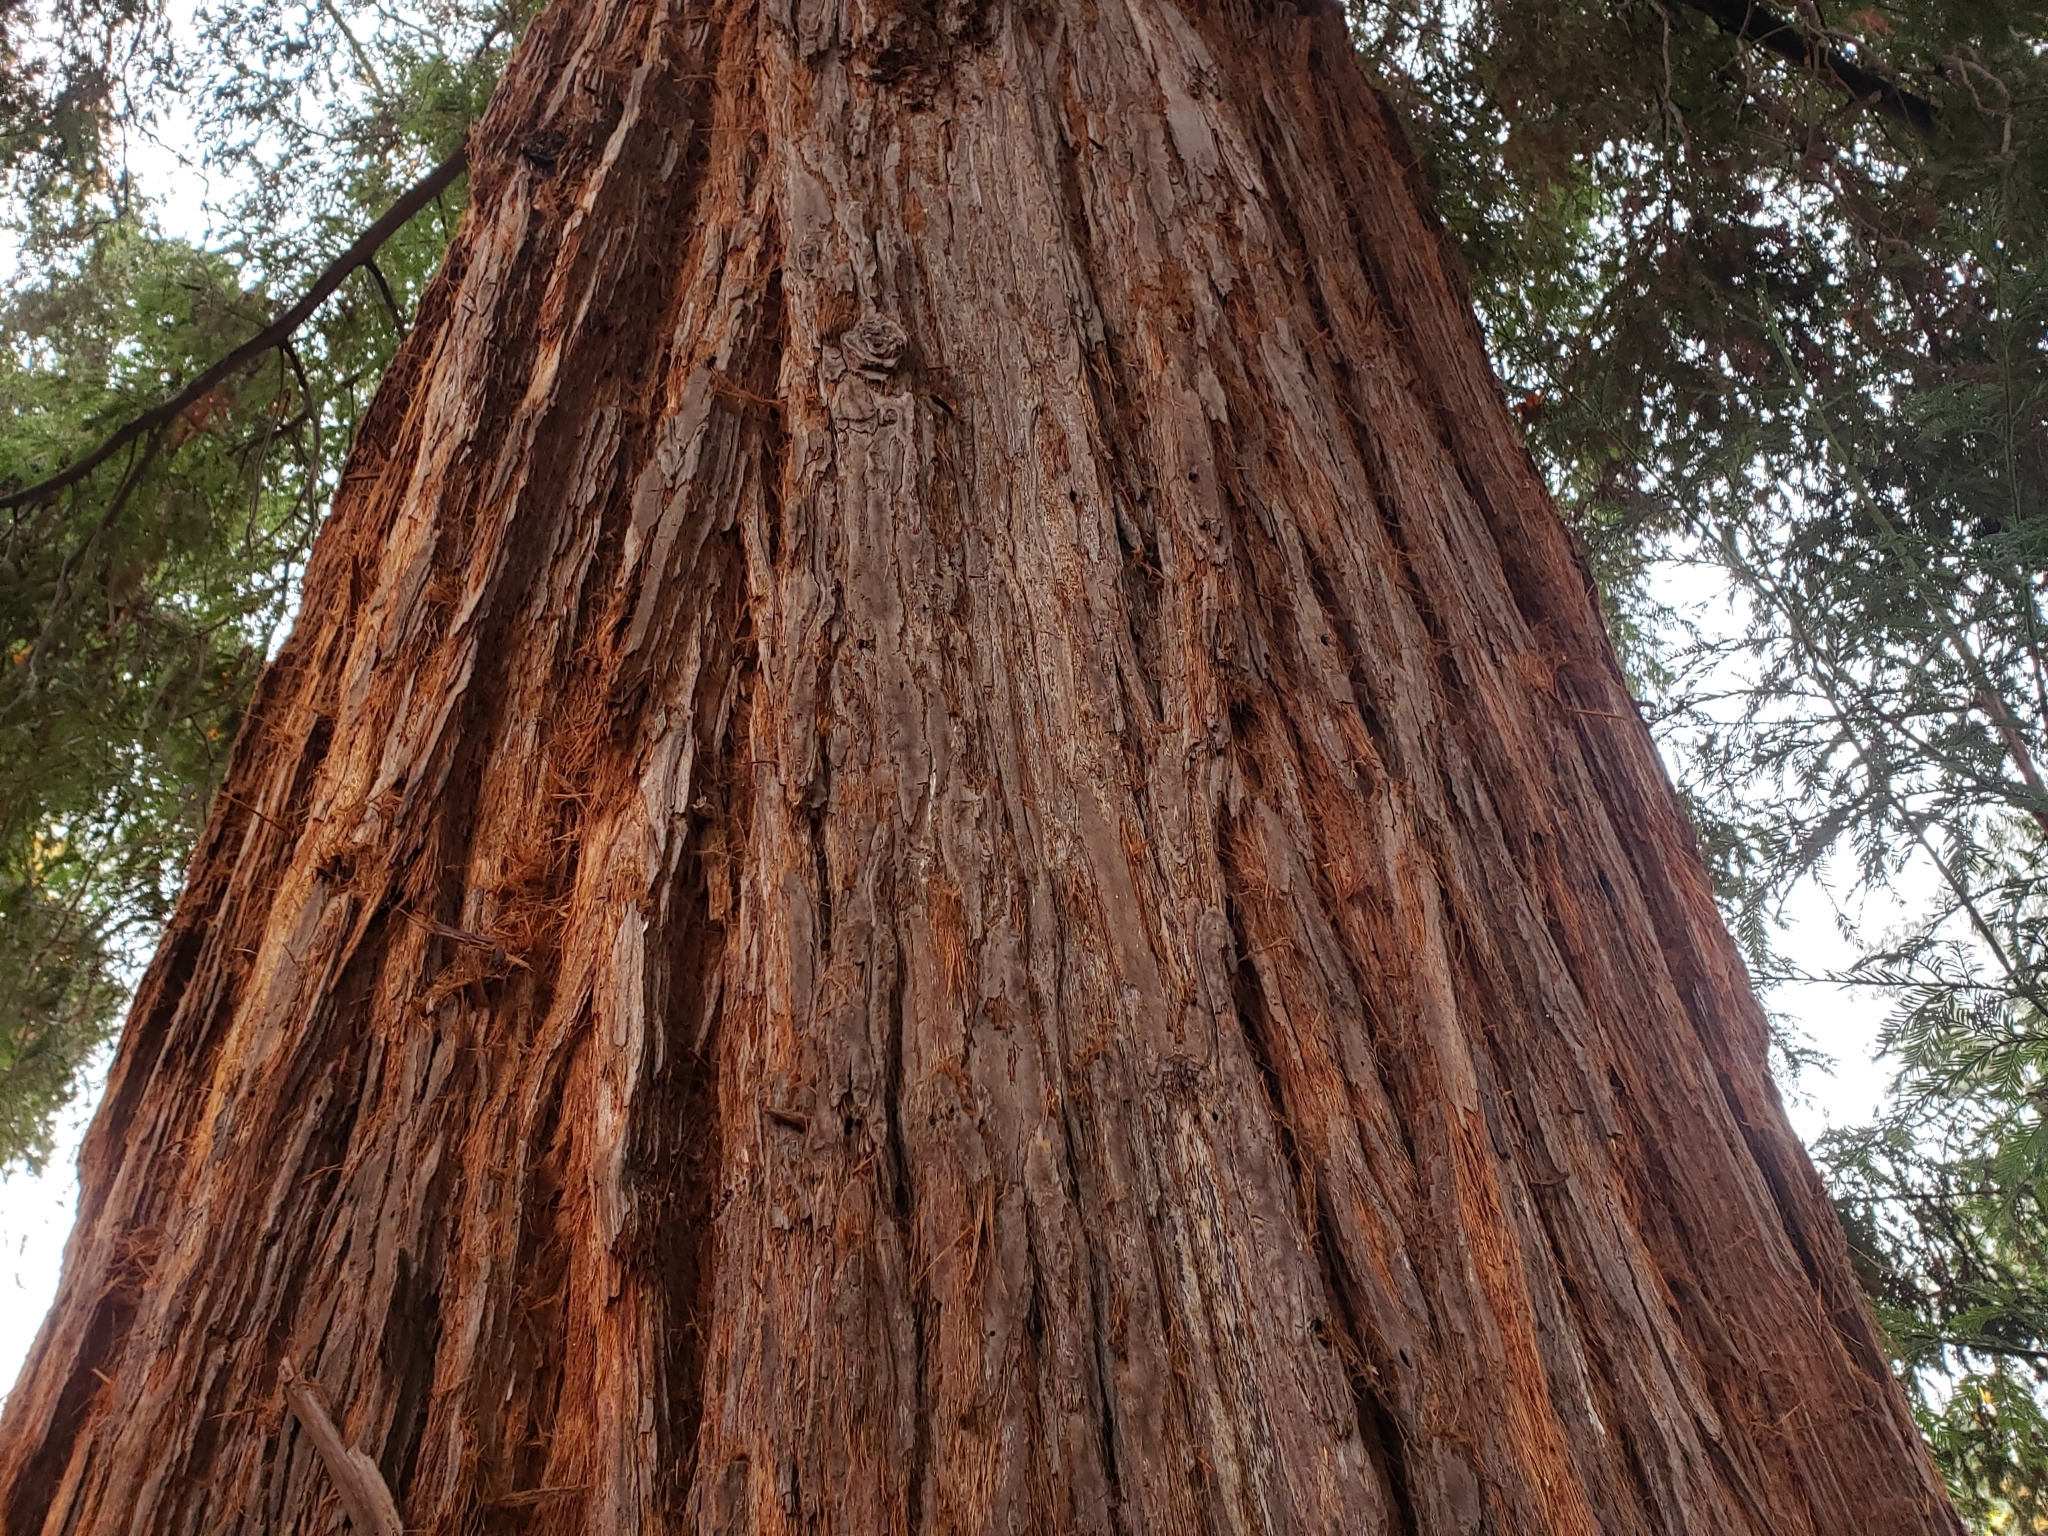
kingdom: Plantae
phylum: Tracheophyta
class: Pinopsida
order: Pinales
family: Cupressaceae
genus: Sequoia
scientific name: Sequoia sempervirens
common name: Coast redwood
